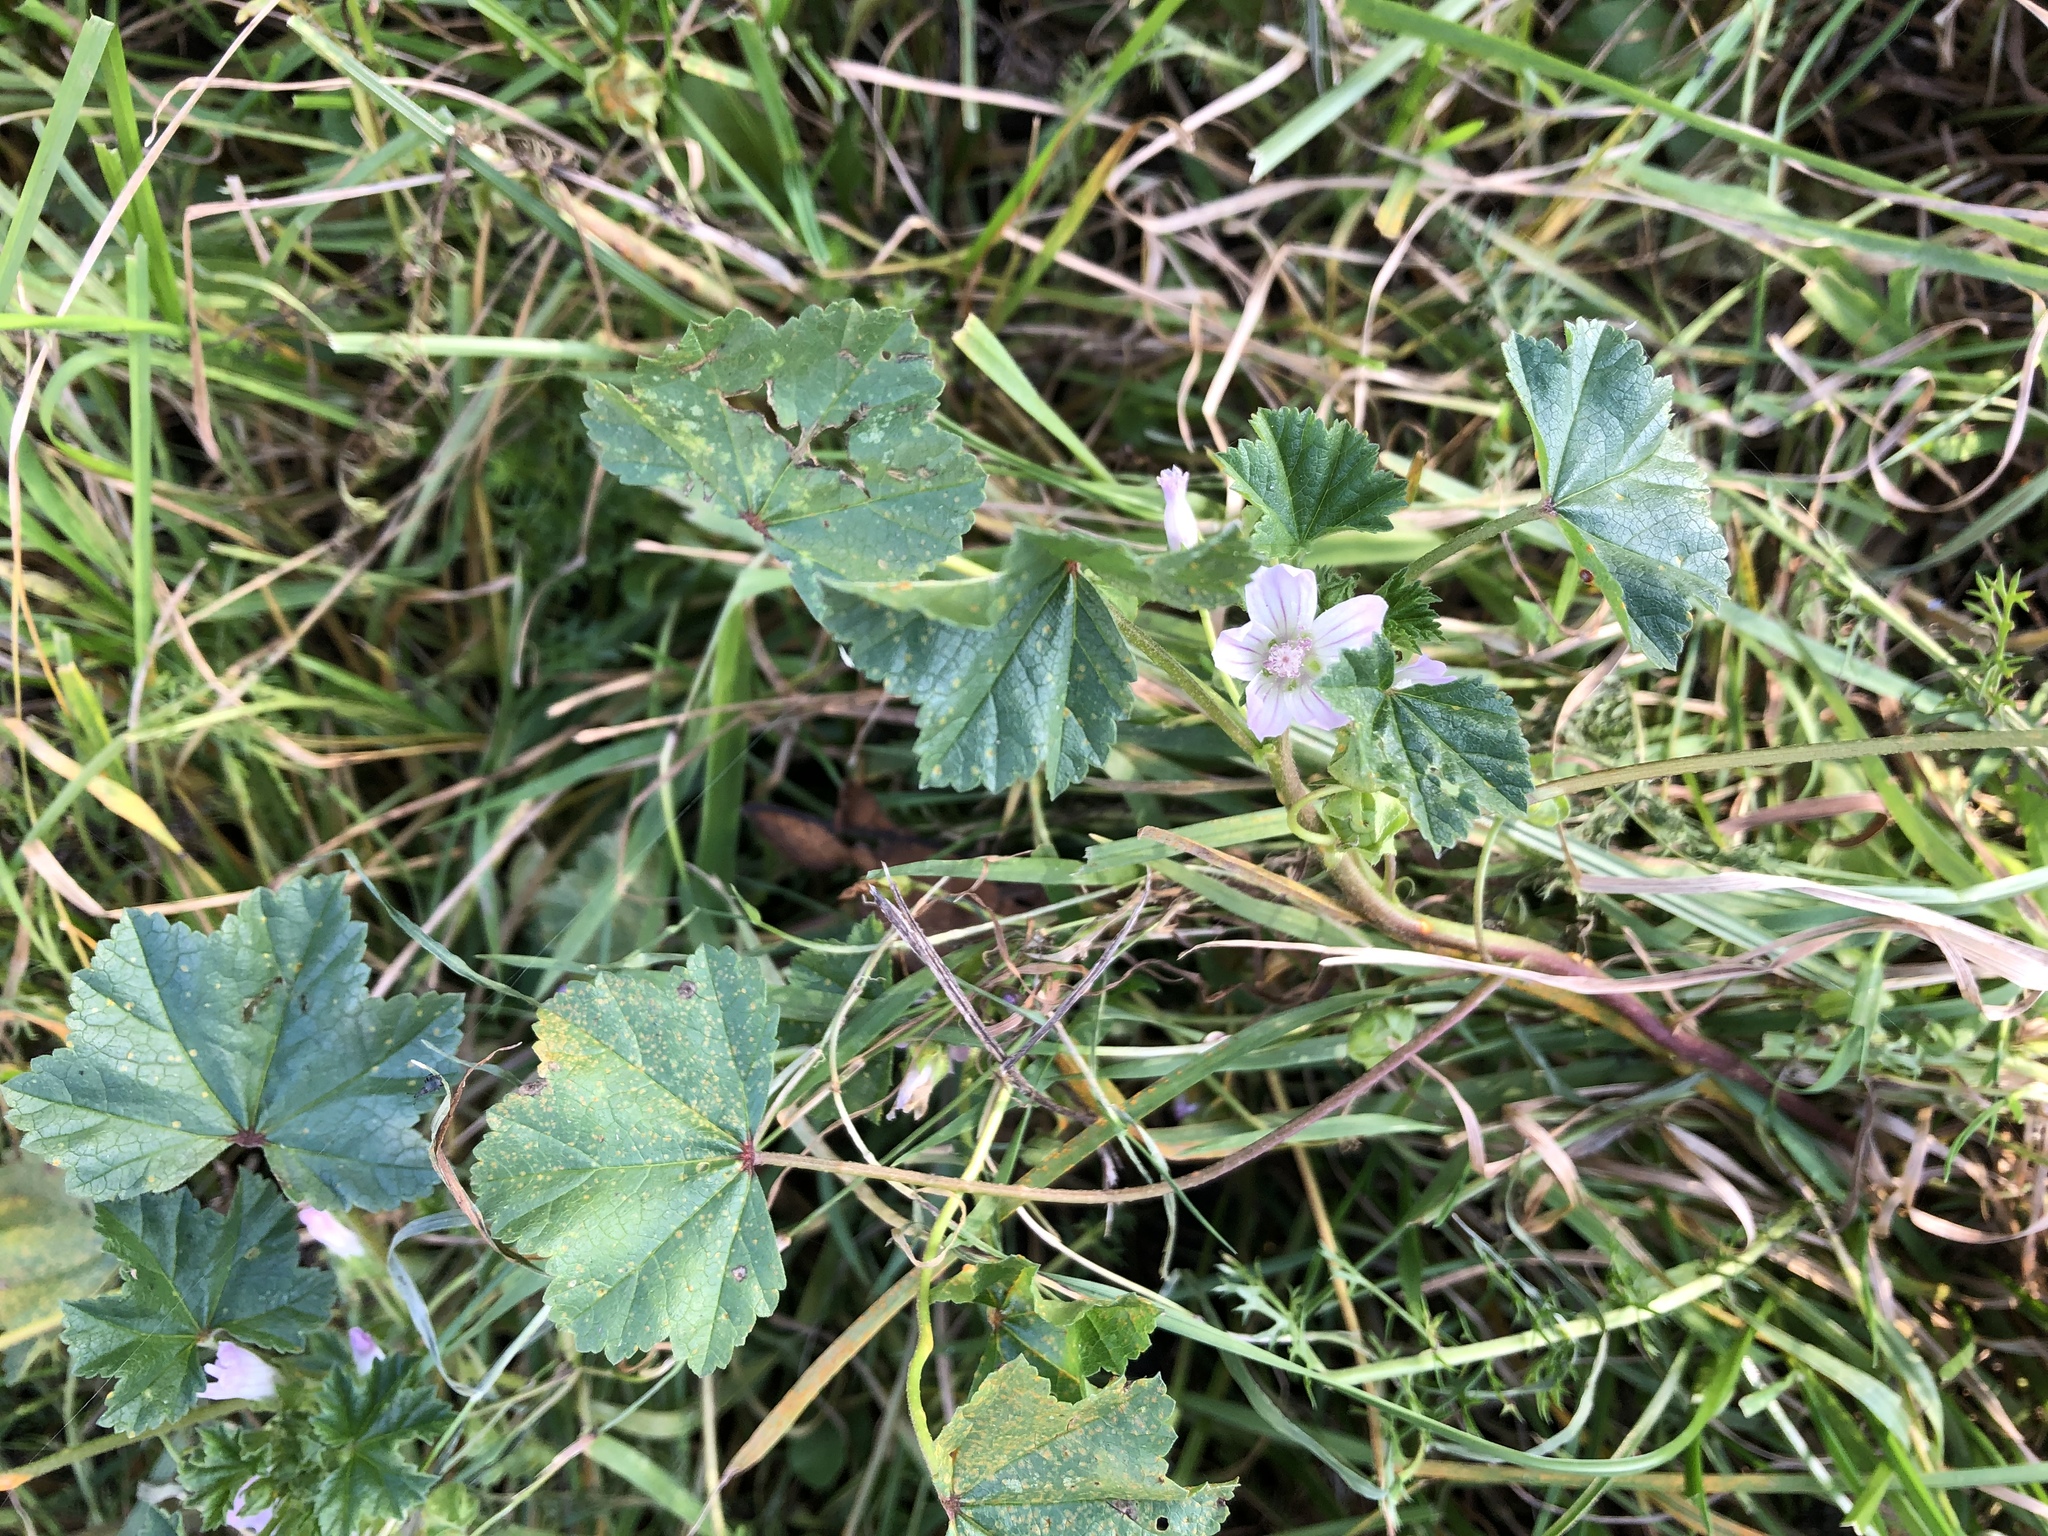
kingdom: Plantae
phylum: Tracheophyta
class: Magnoliopsida
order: Malvales
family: Malvaceae
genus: Malva
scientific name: Malva neglecta
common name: Common mallow
